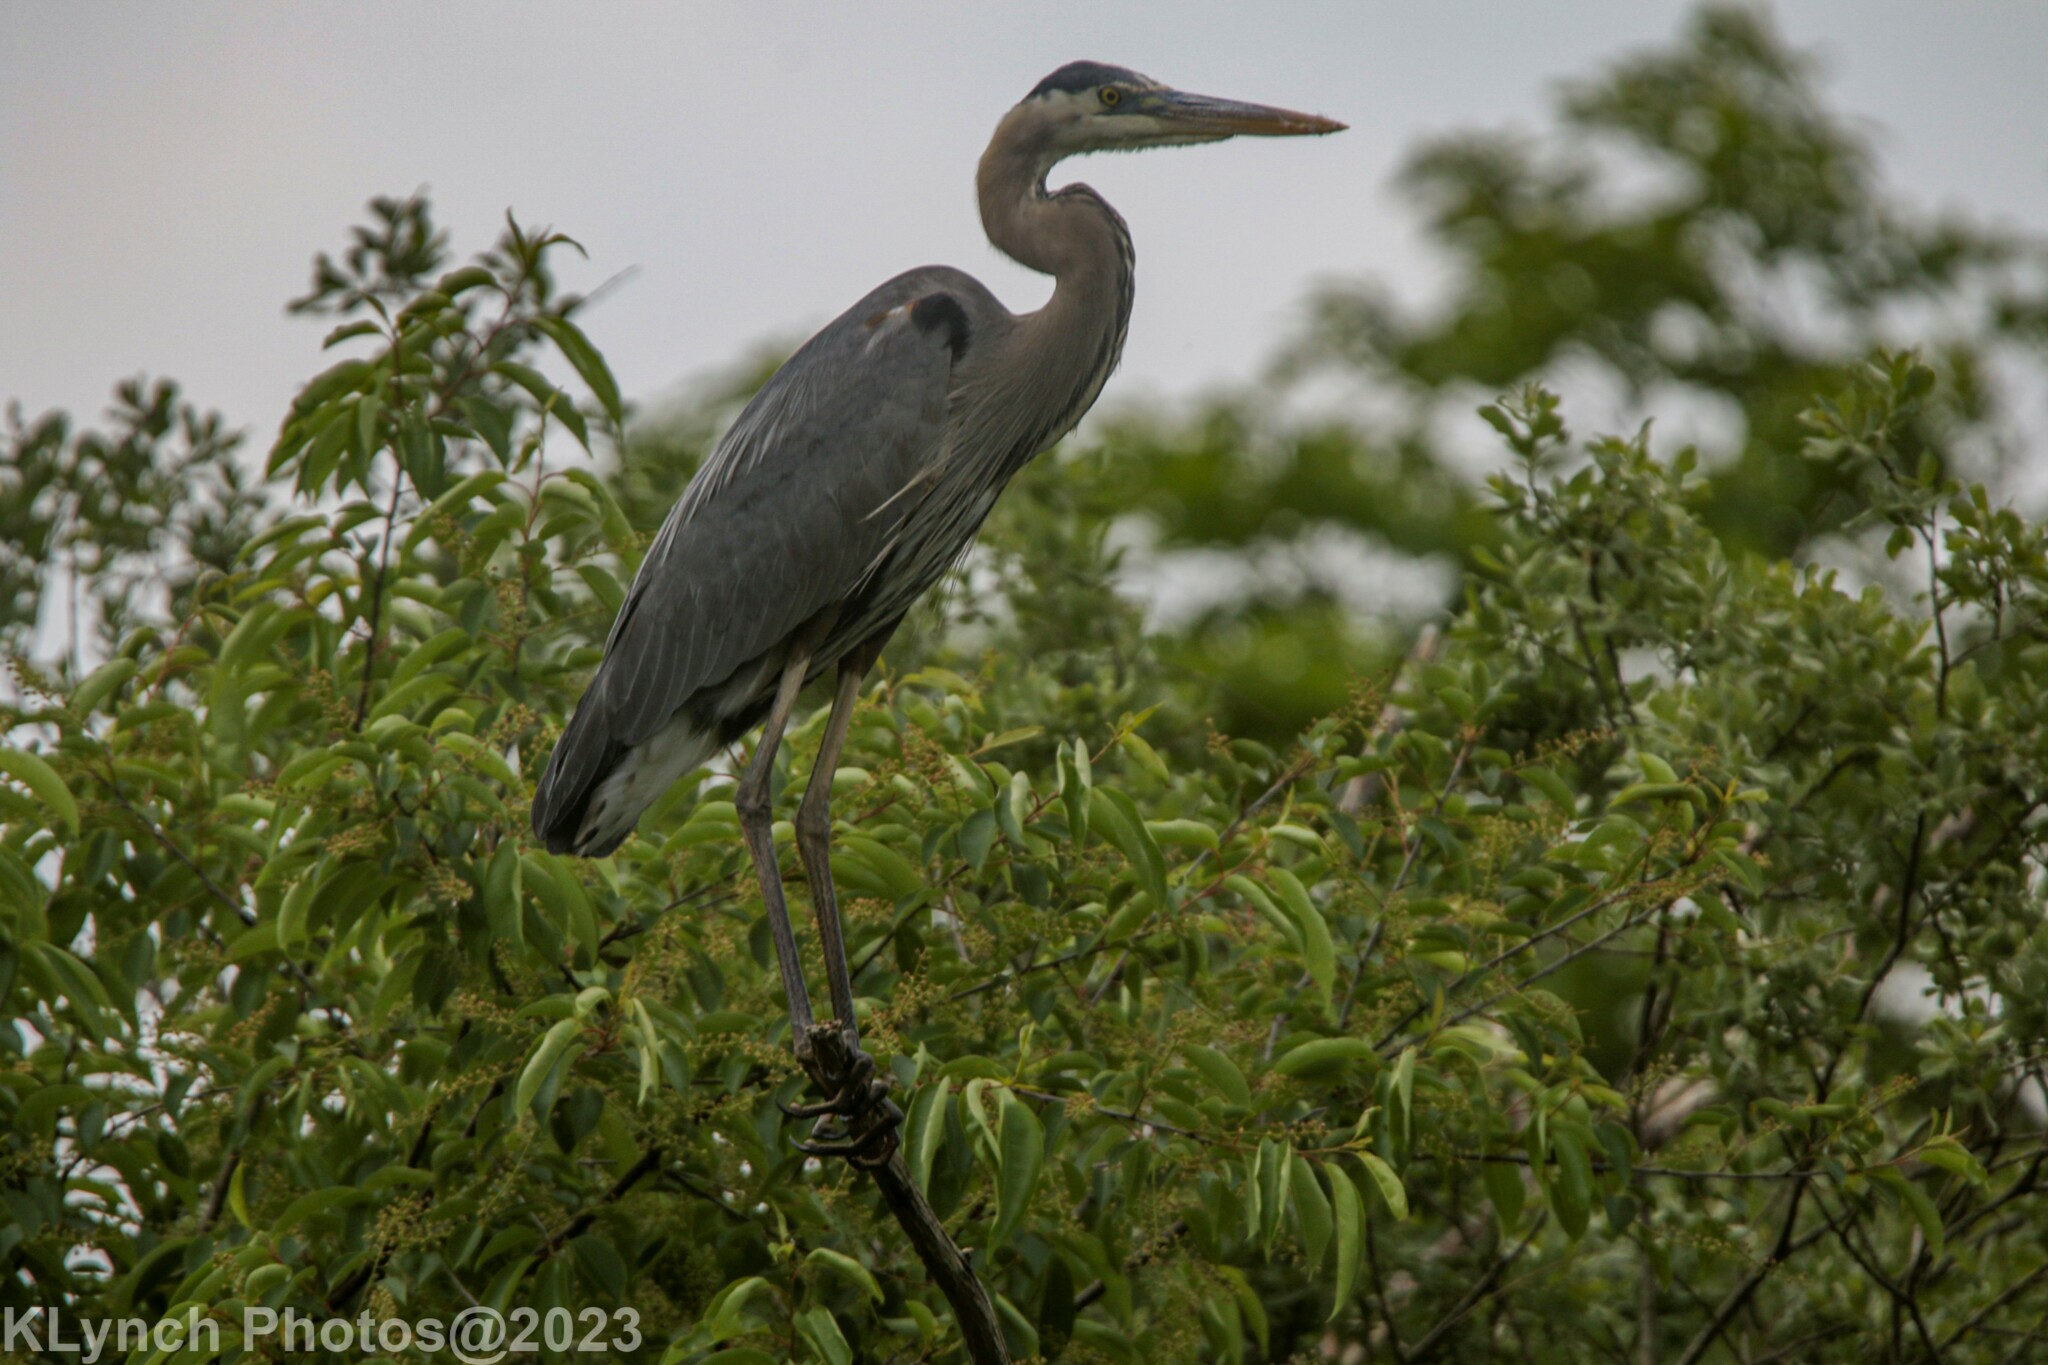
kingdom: Animalia
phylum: Chordata
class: Aves
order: Pelecaniformes
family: Ardeidae
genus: Ardea
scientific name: Ardea herodias
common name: Great blue heron
